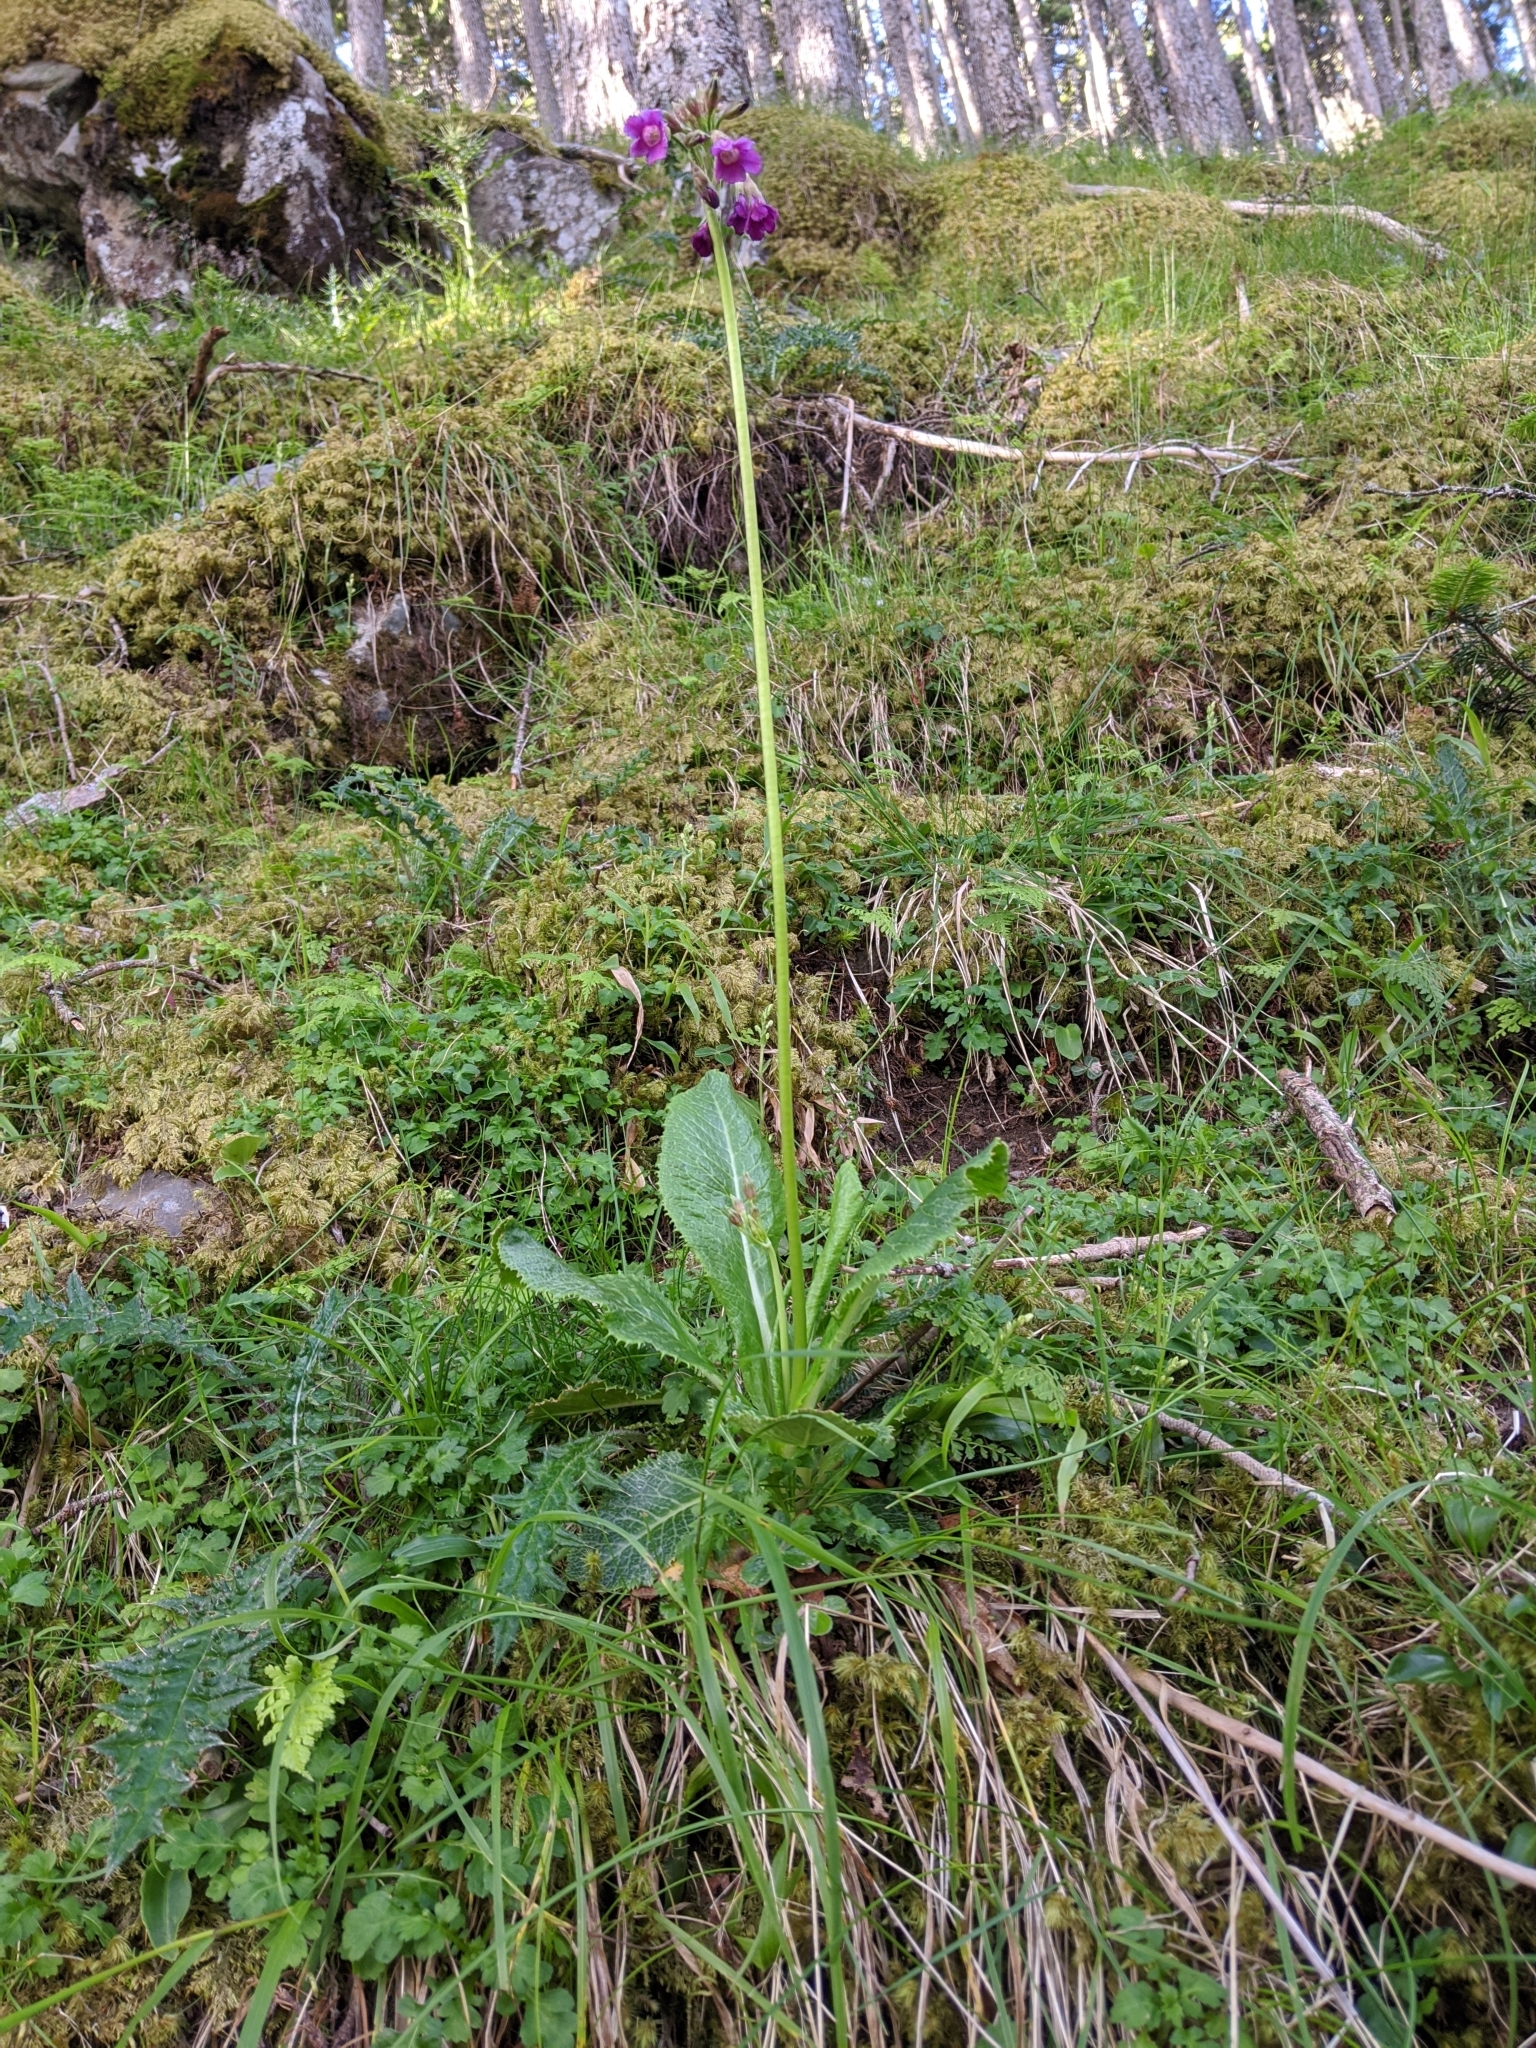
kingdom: Plantae
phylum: Tracheophyta
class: Magnoliopsida
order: Ericales
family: Primulaceae
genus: Primula
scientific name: Primula miyabeana
